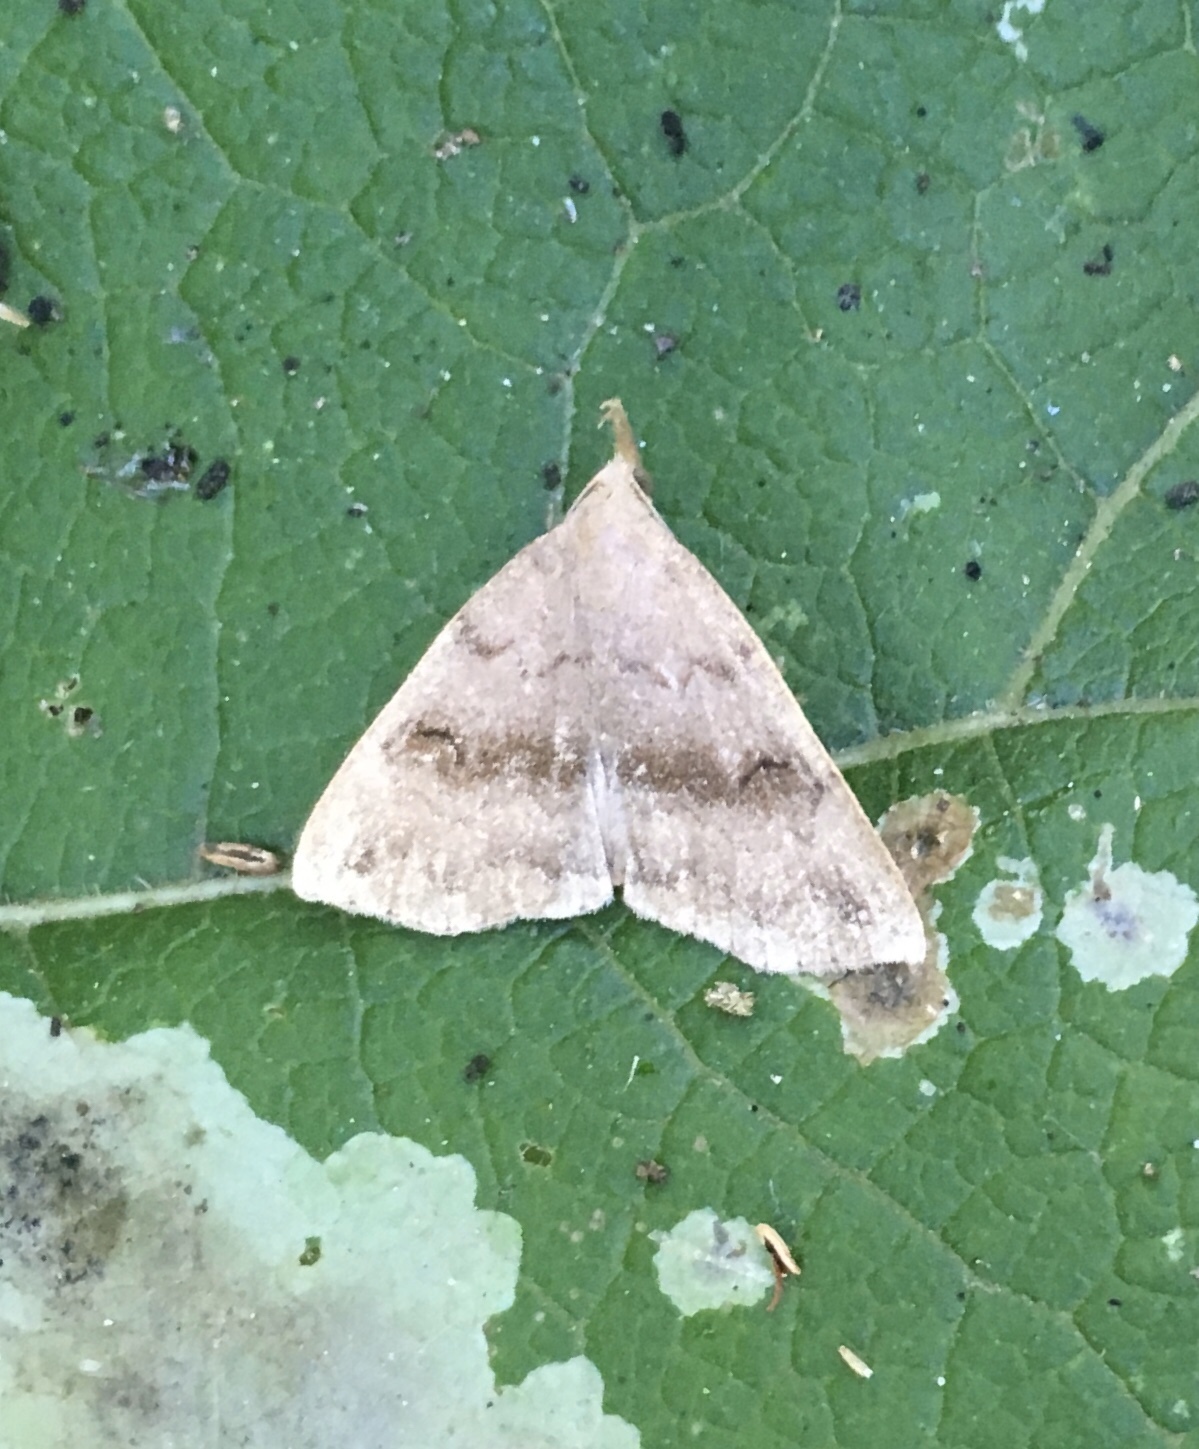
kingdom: Animalia
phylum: Arthropoda
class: Insecta
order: Lepidoptera
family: Erebidae
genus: Phalaenostola
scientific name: Phalaenostola eumelusalis
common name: Dark phalaenostola moth
